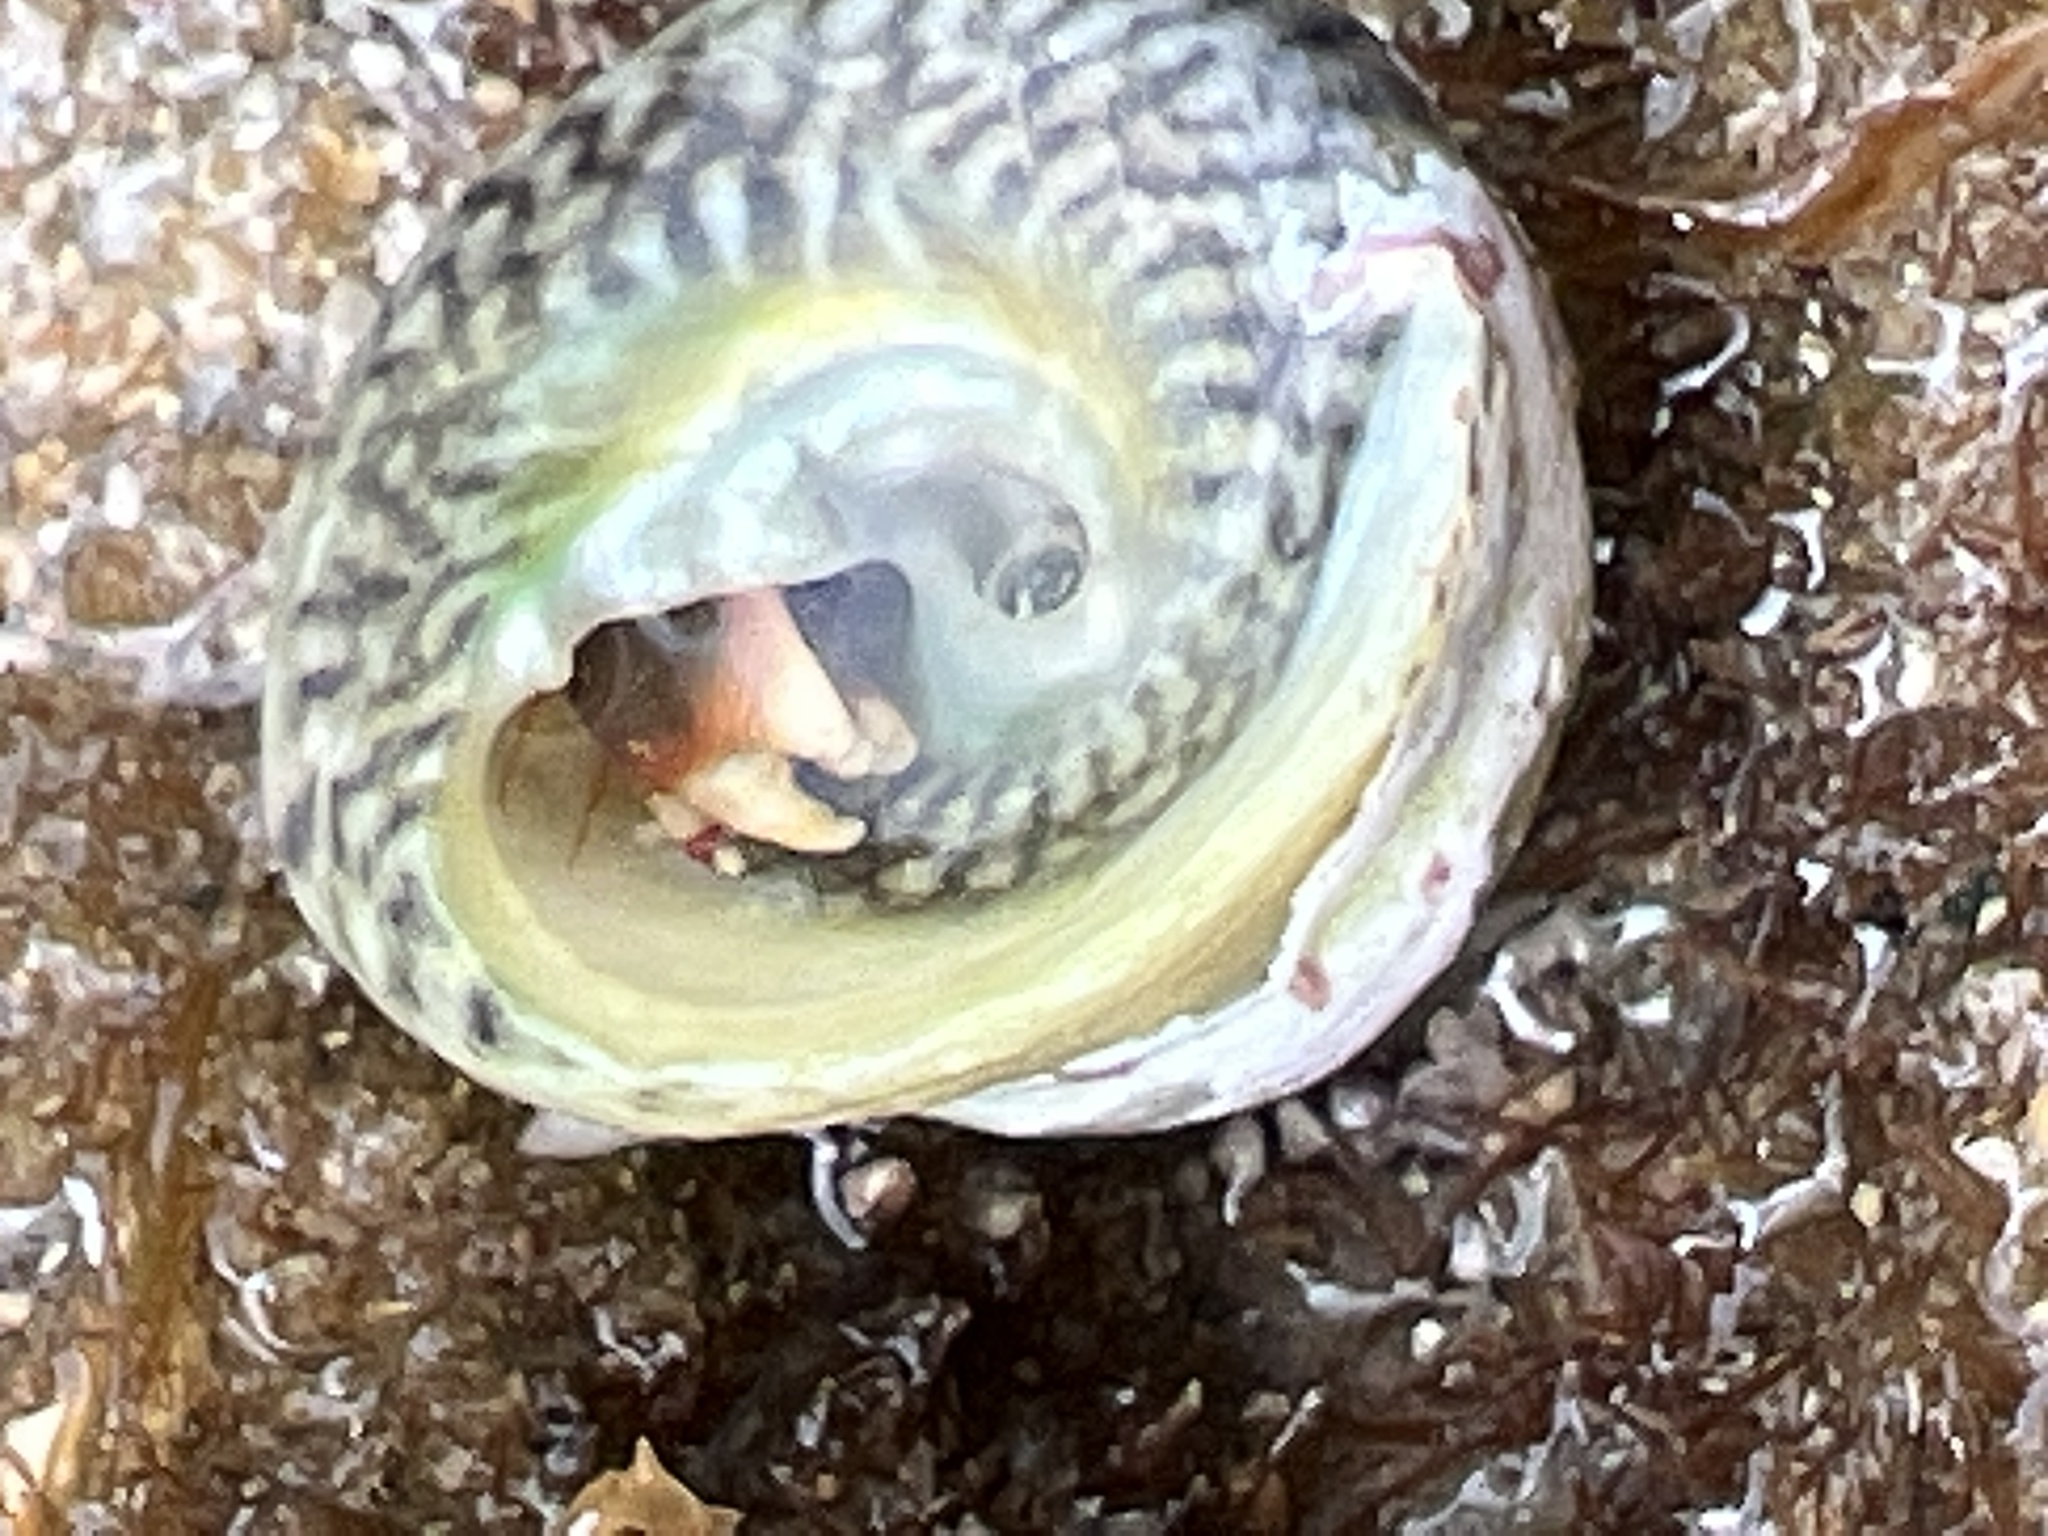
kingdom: Animalia
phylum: Arthropoda
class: Malacostraca
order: Decapoda
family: Diogenidae
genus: Calcinus
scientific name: Calcinus tibicen
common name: Orangeclaw hermit
